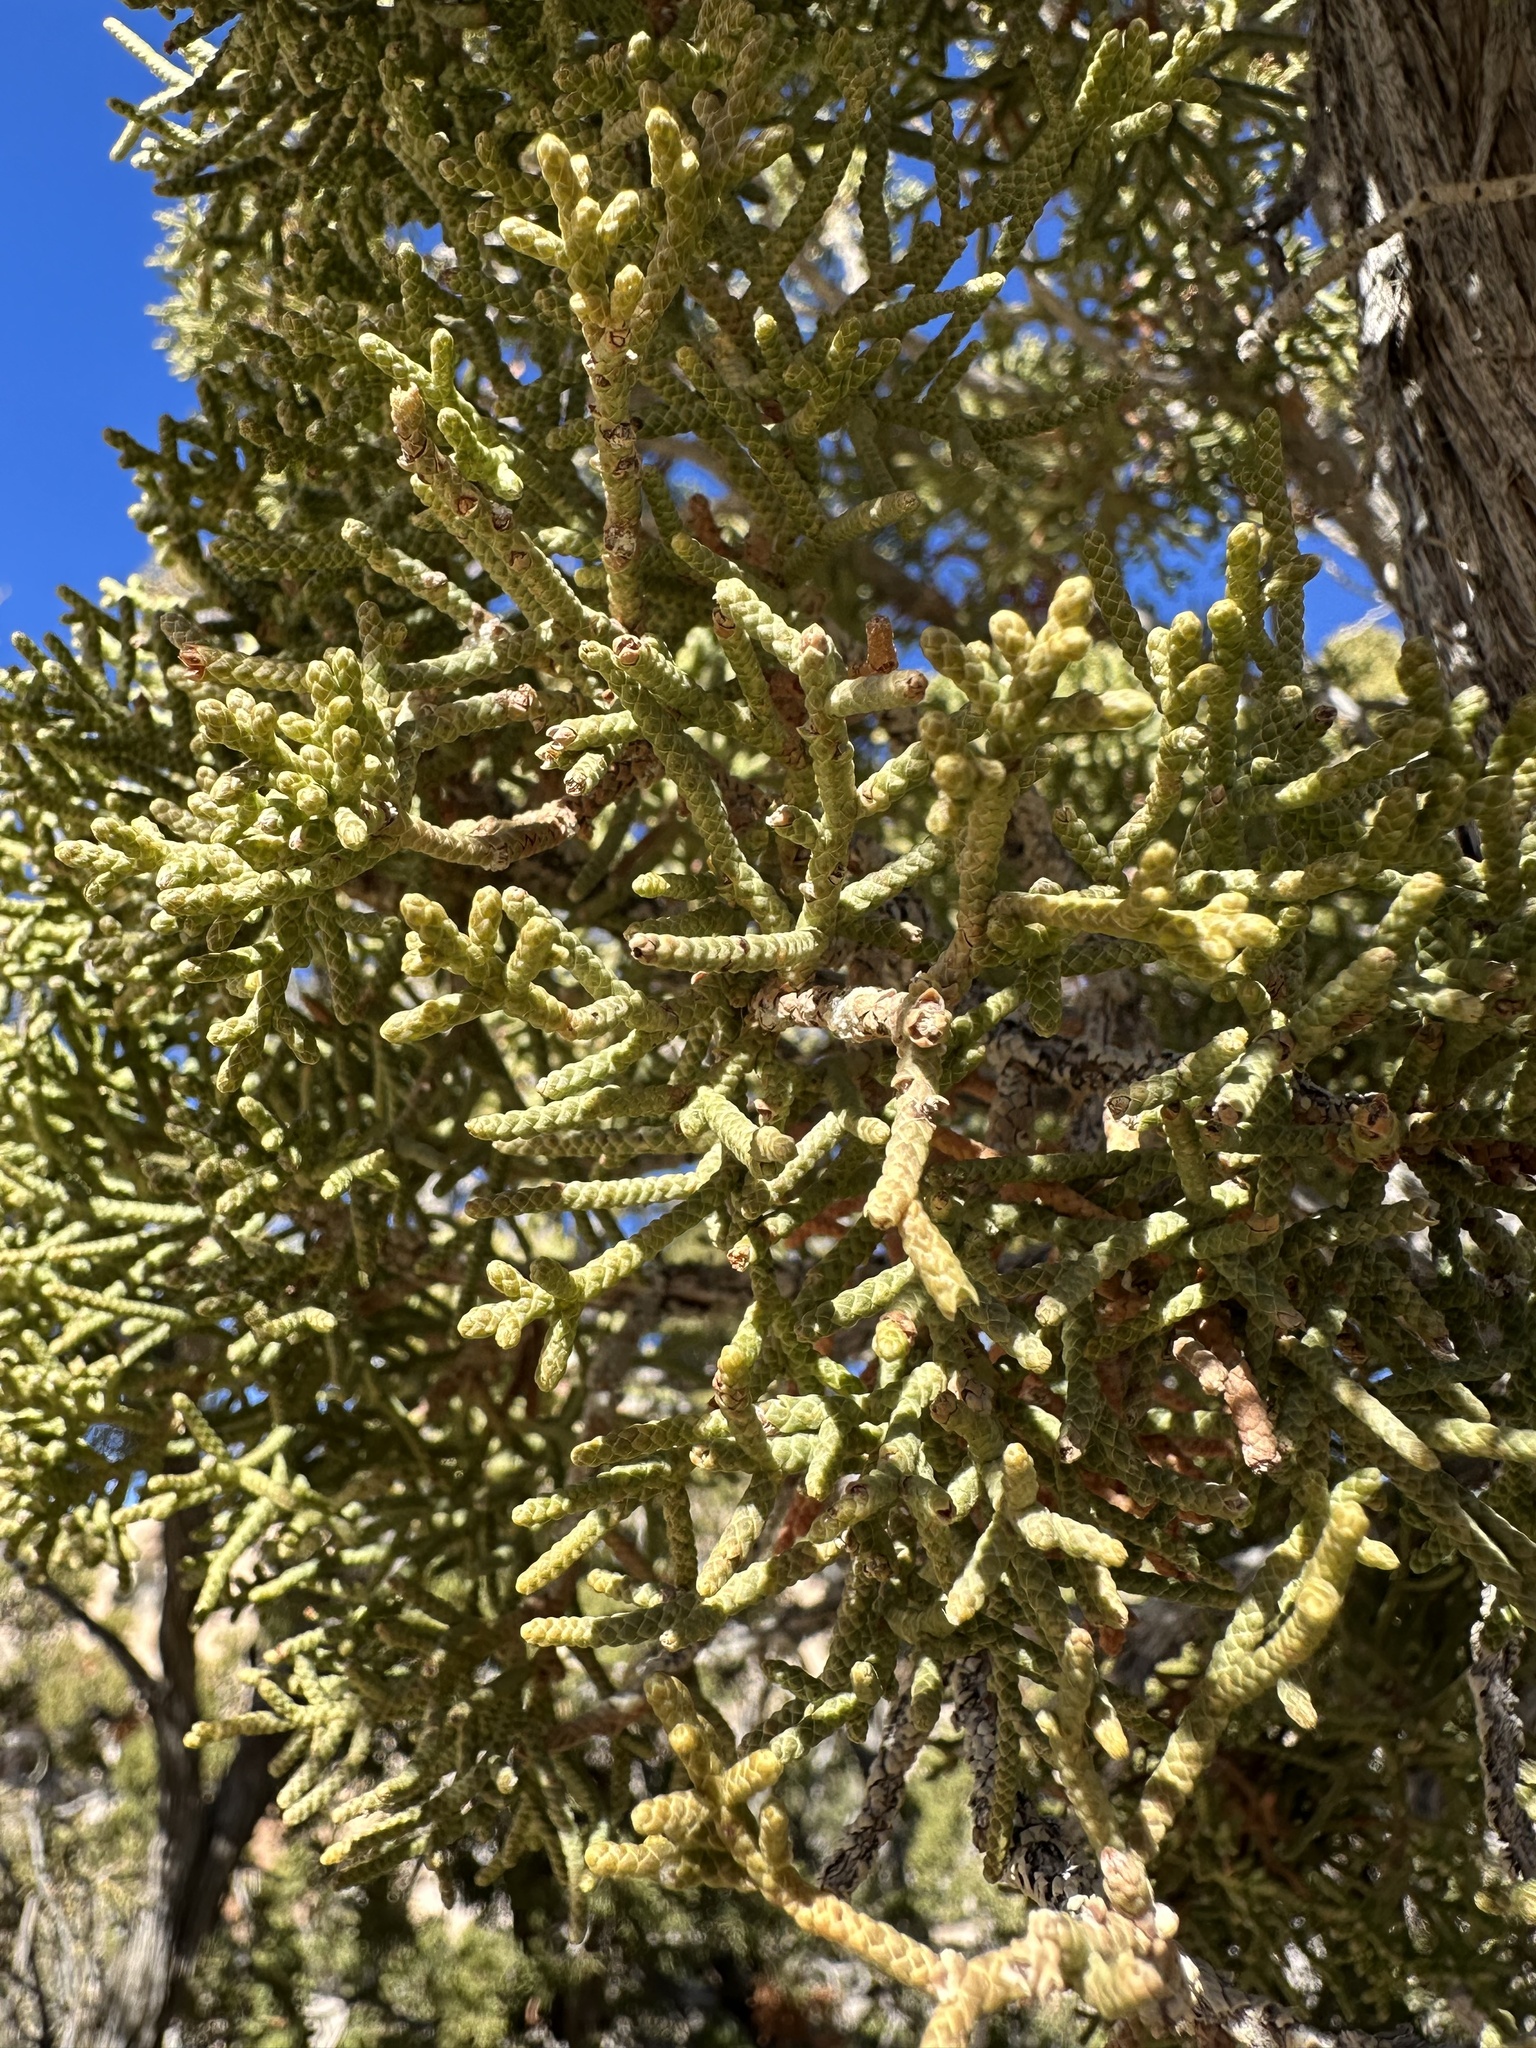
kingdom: Plantae
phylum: Tracheophyta
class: Pinopsida
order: Pinales
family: Cupressaceae
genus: Juniperus
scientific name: Juniperus californica
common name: California juniper
